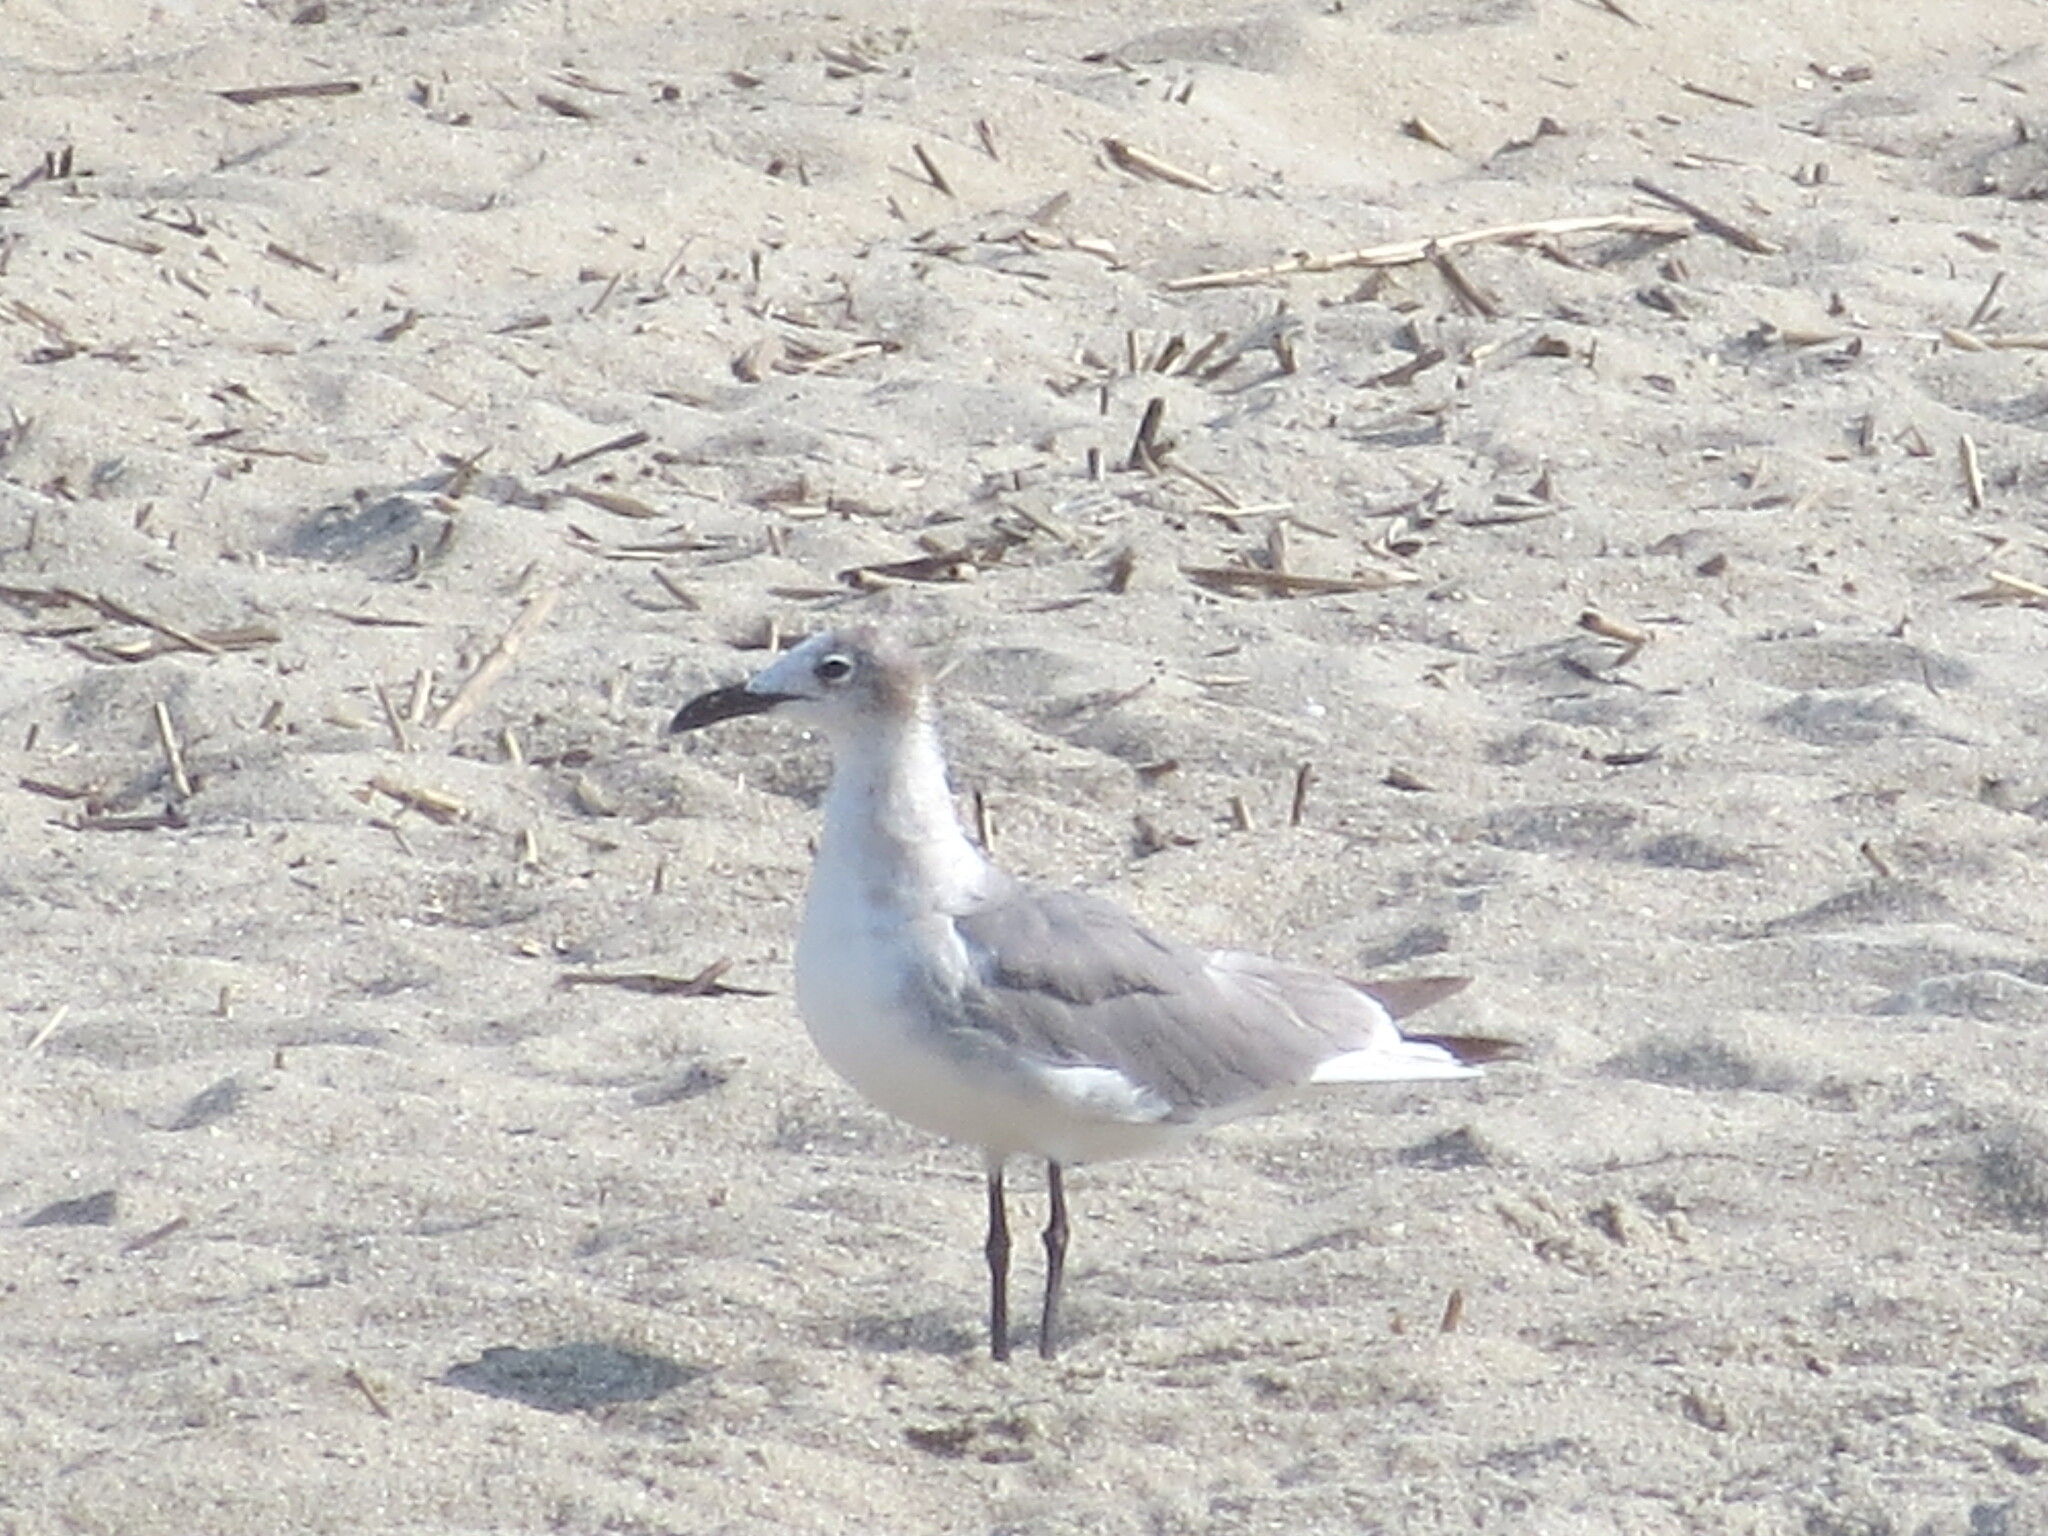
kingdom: Animalia
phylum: Chordata
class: Aves
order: Charadriiformes
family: Laridae
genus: Leucophaeus
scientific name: Leucophaeus atricilla
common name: Laughing gull
